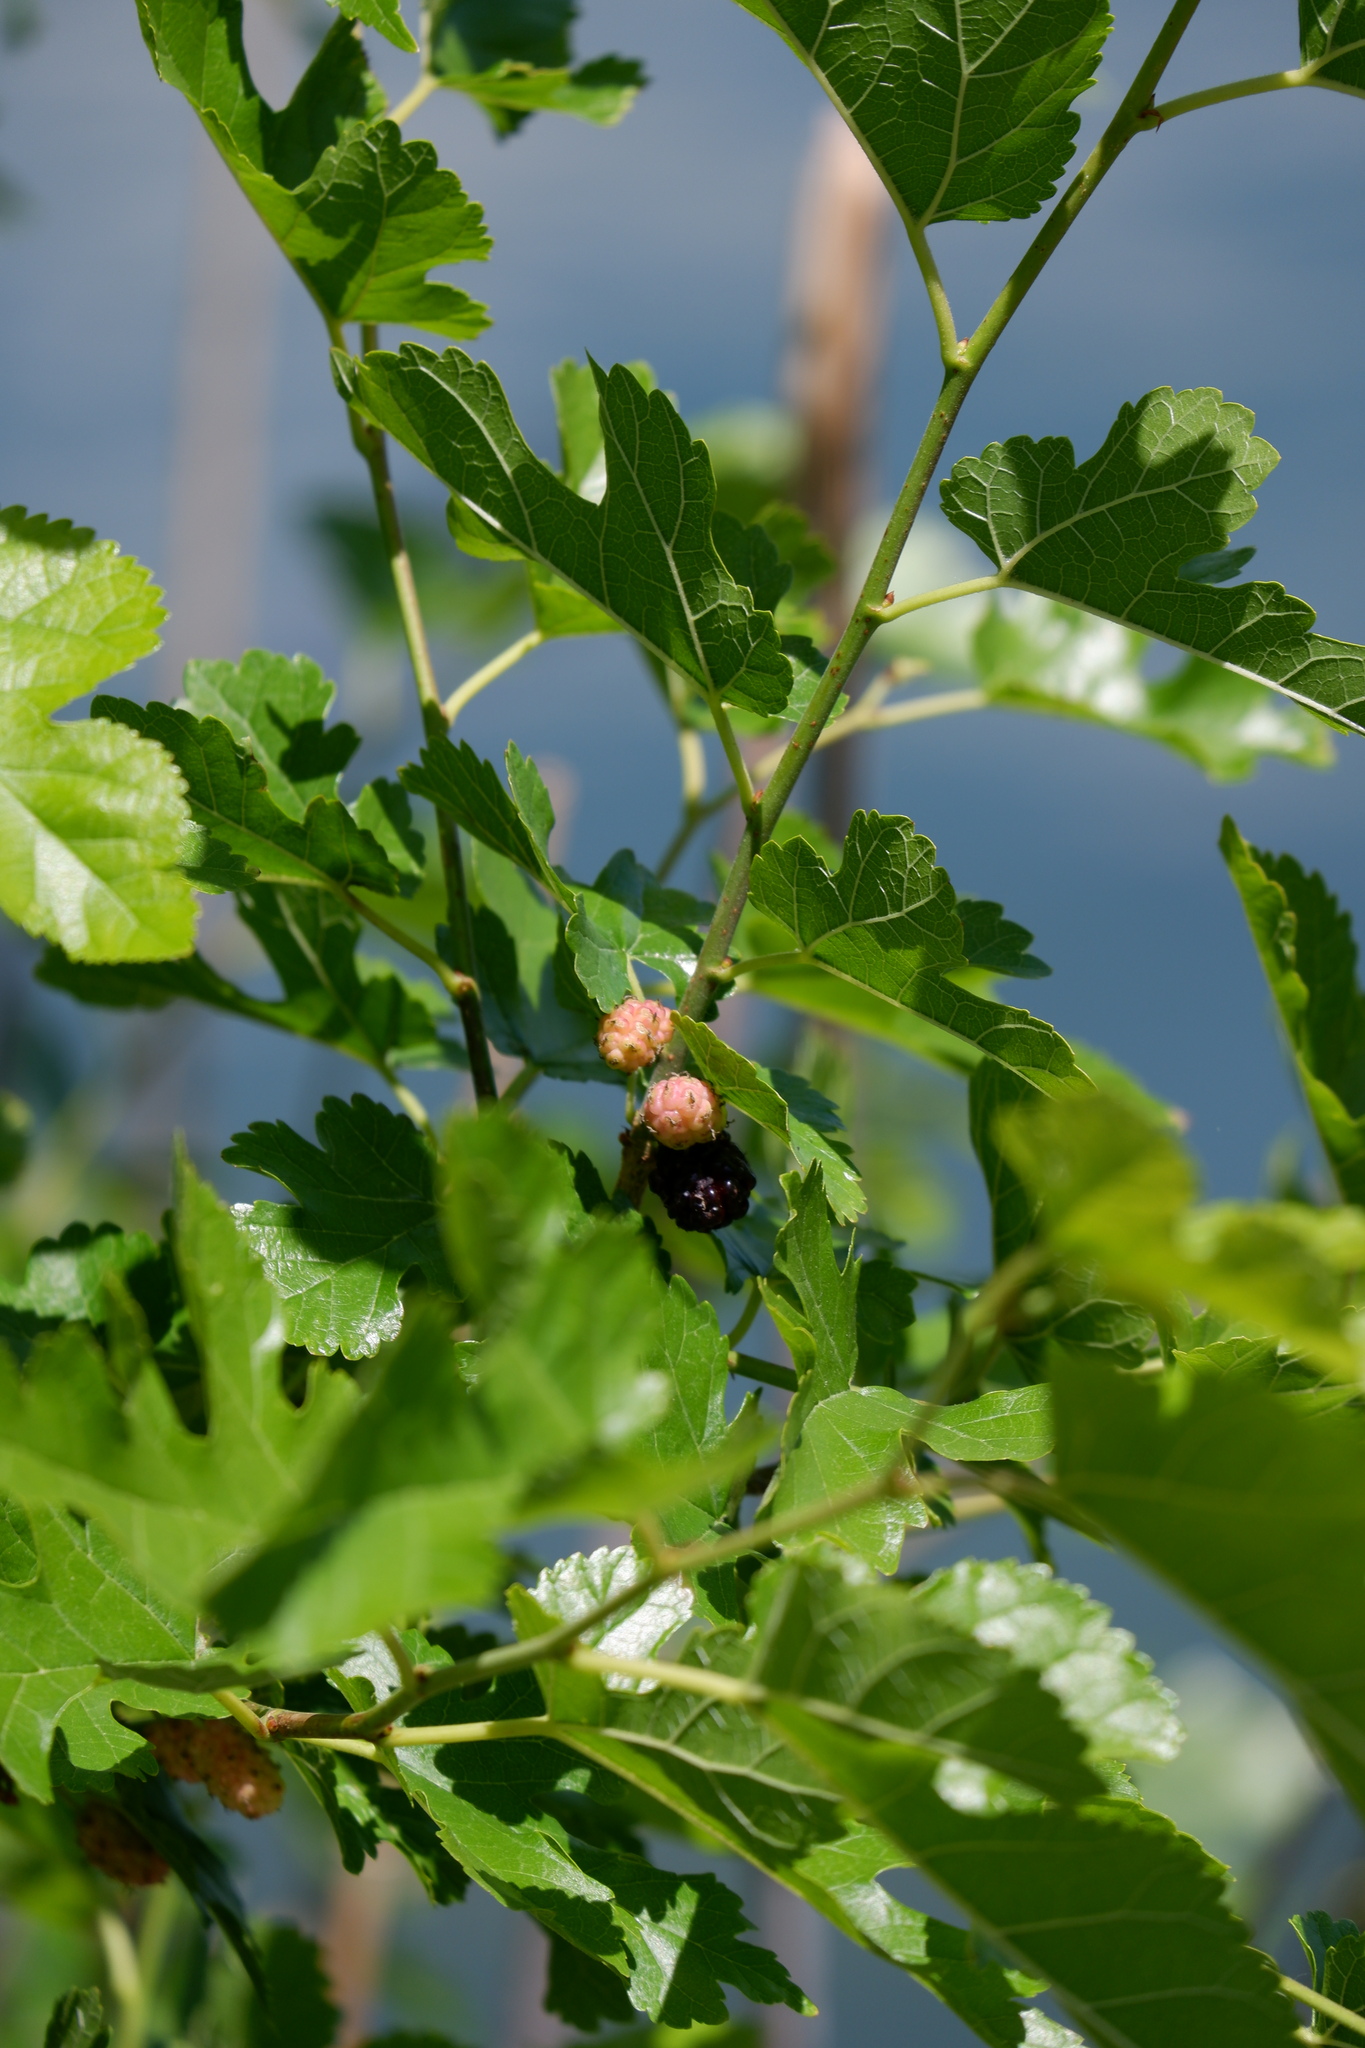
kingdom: Plantae
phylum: Tracheophyta
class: Magnoliopsida
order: Rosales
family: Moraceae
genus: Morus
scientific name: Morus alba
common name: White mulberry
